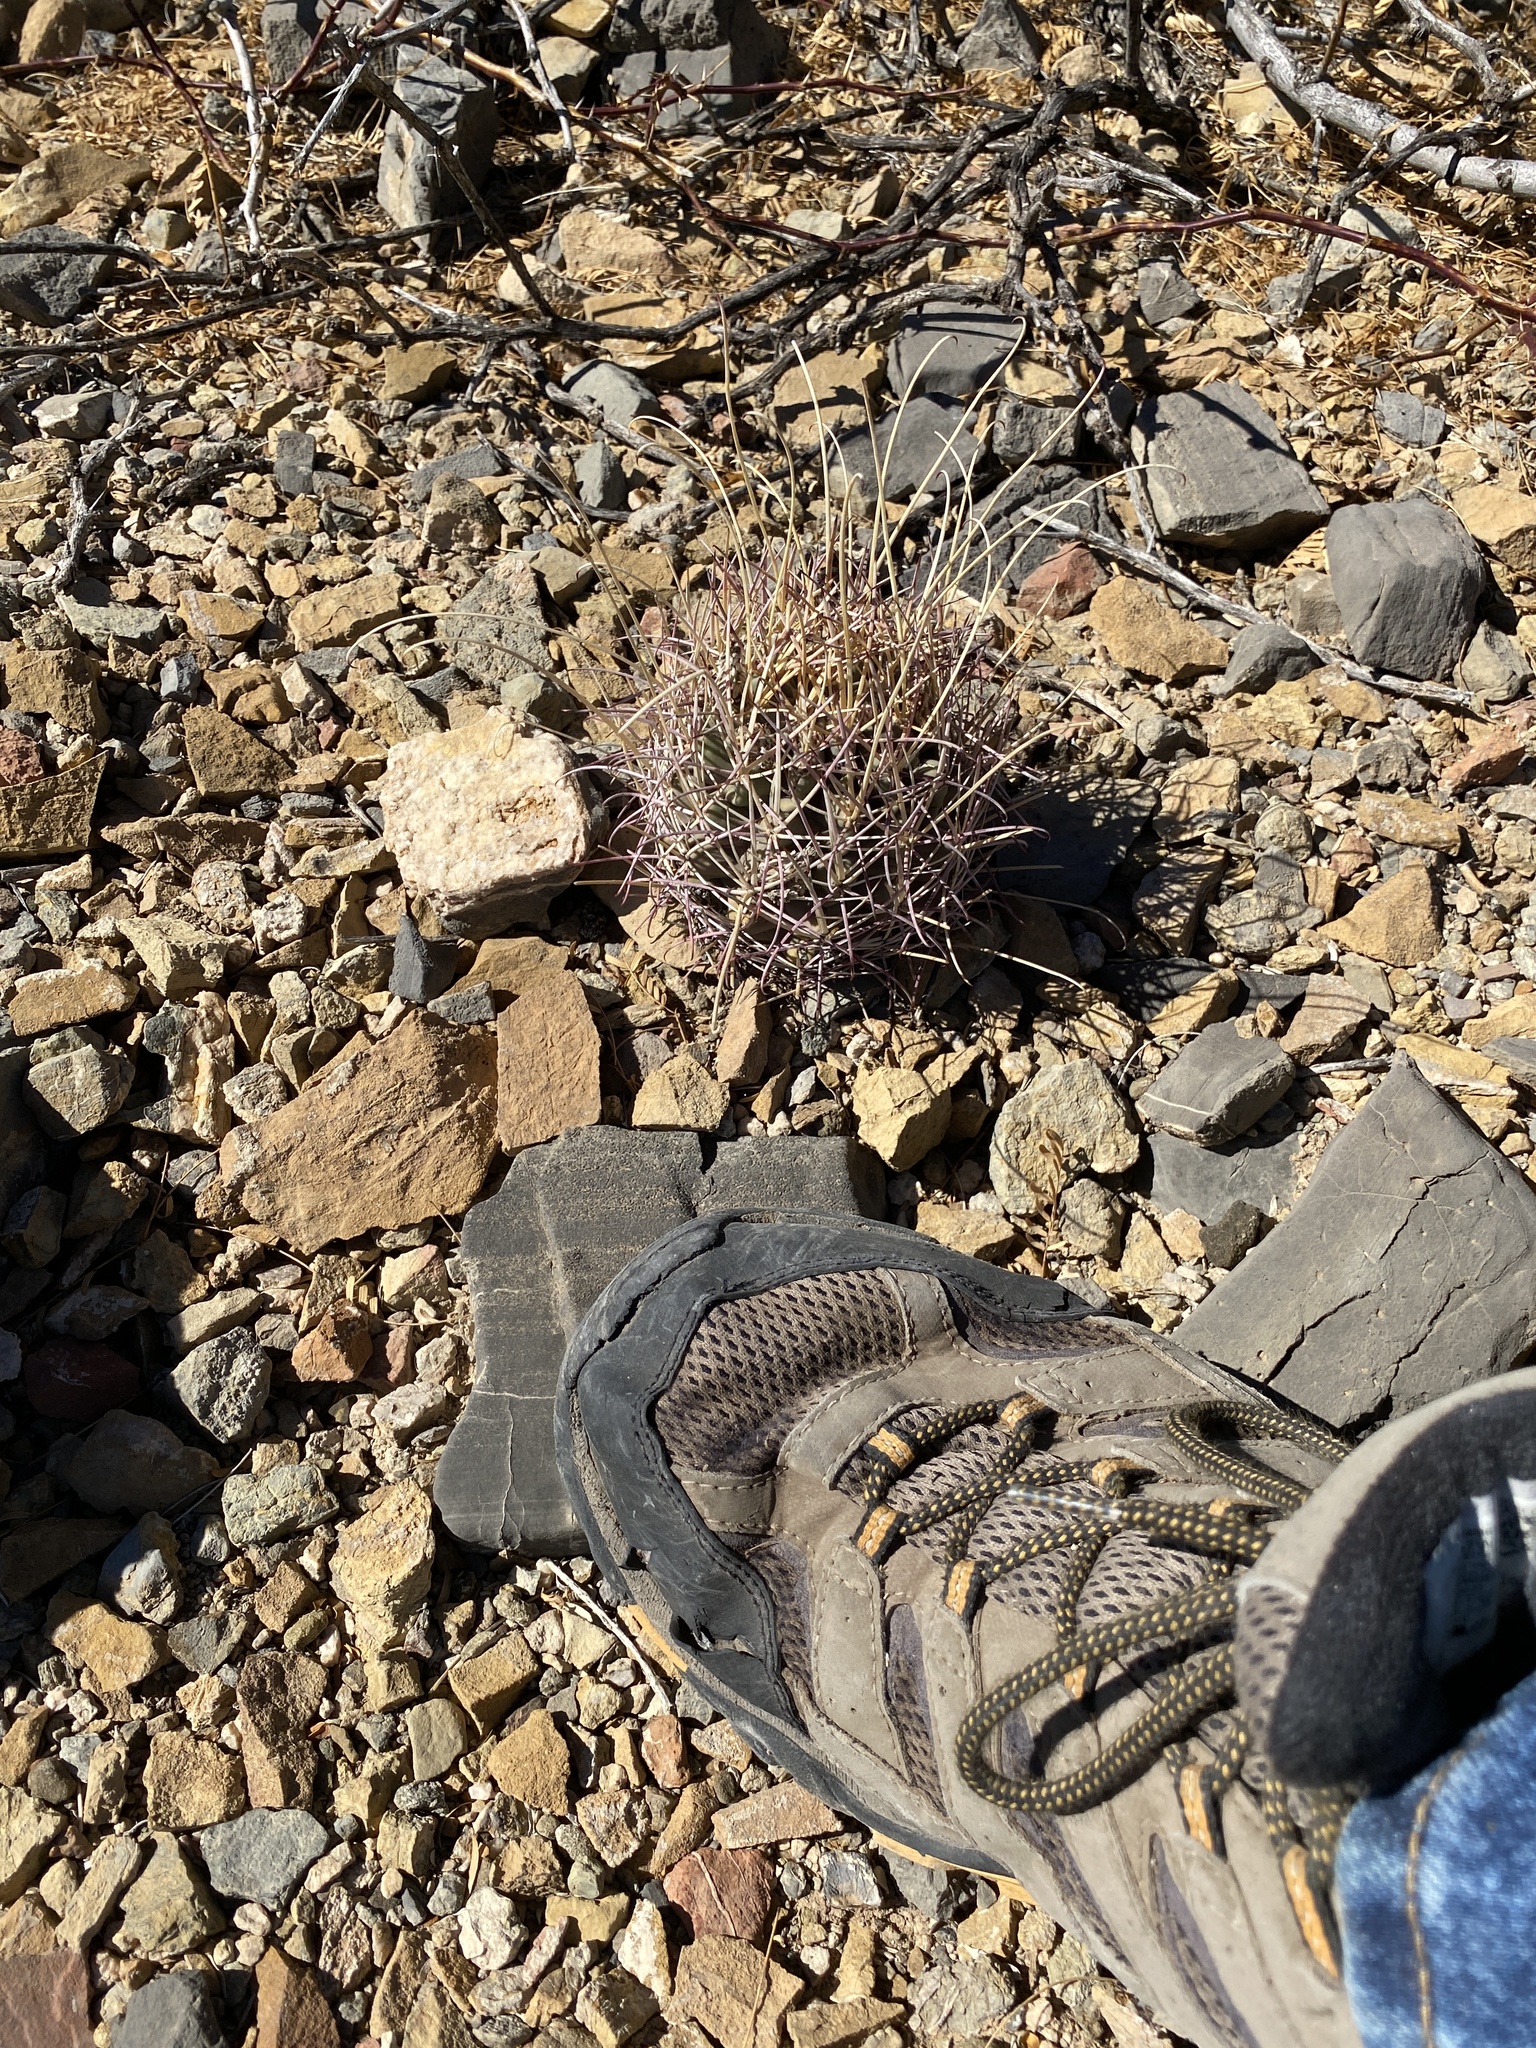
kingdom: Plantae
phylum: Tracheophyta
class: Magnoliopsida
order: Caryophyllales
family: Cactaceae
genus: Ferocactus
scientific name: Ferocactus uncinatus
